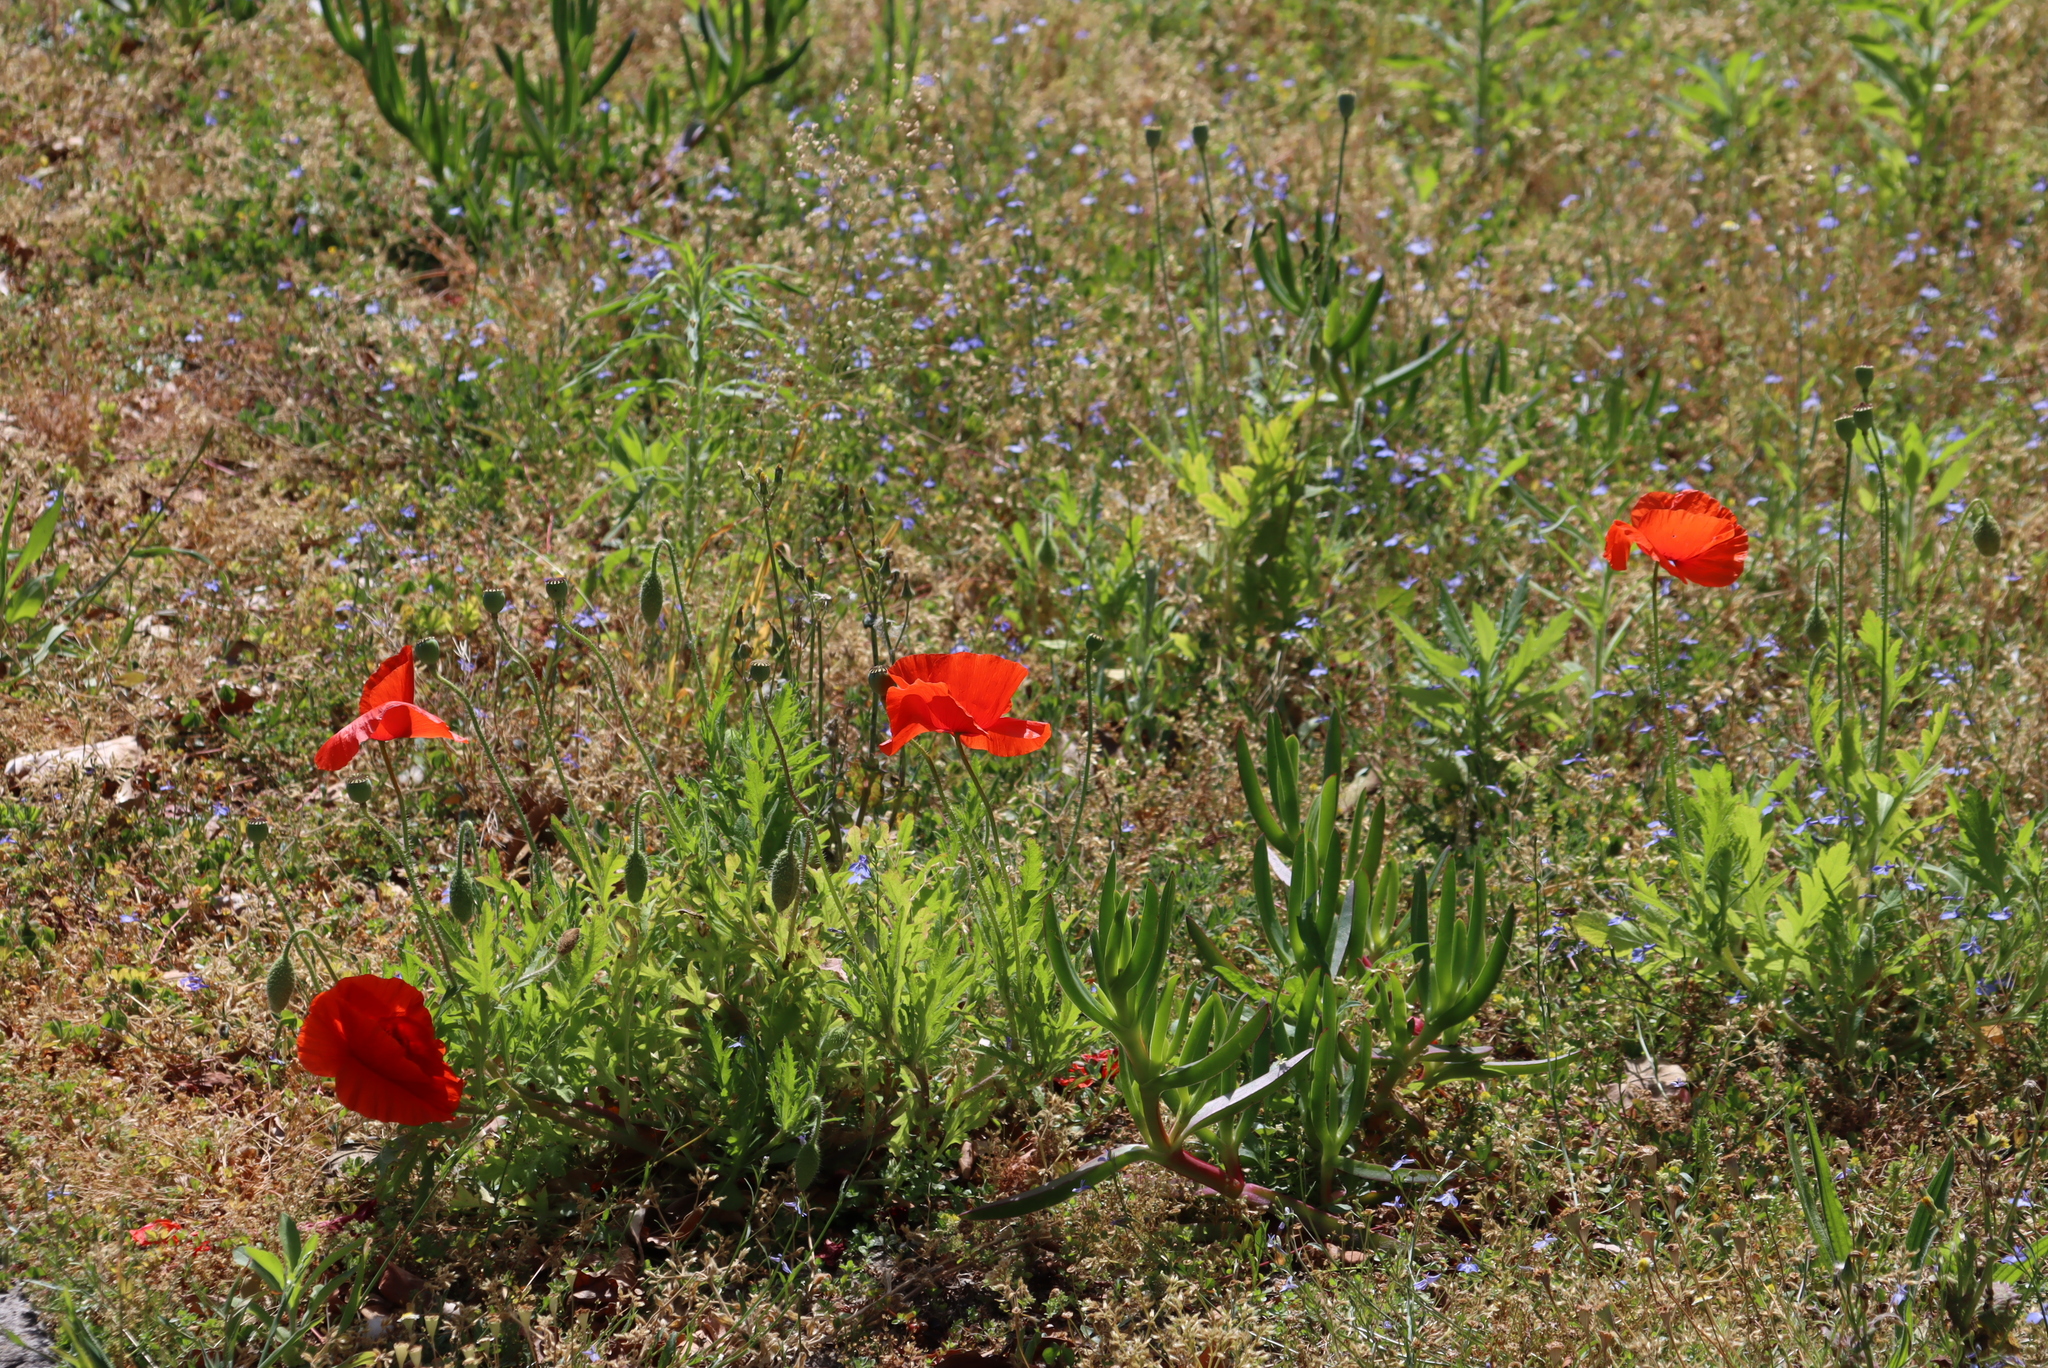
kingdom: Plantae
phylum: Tracheophyta
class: Magnoliopsida
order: Ranunculales
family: Papaveraceae
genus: Papaver
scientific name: Papaver rhoeas
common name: Corn poppy
